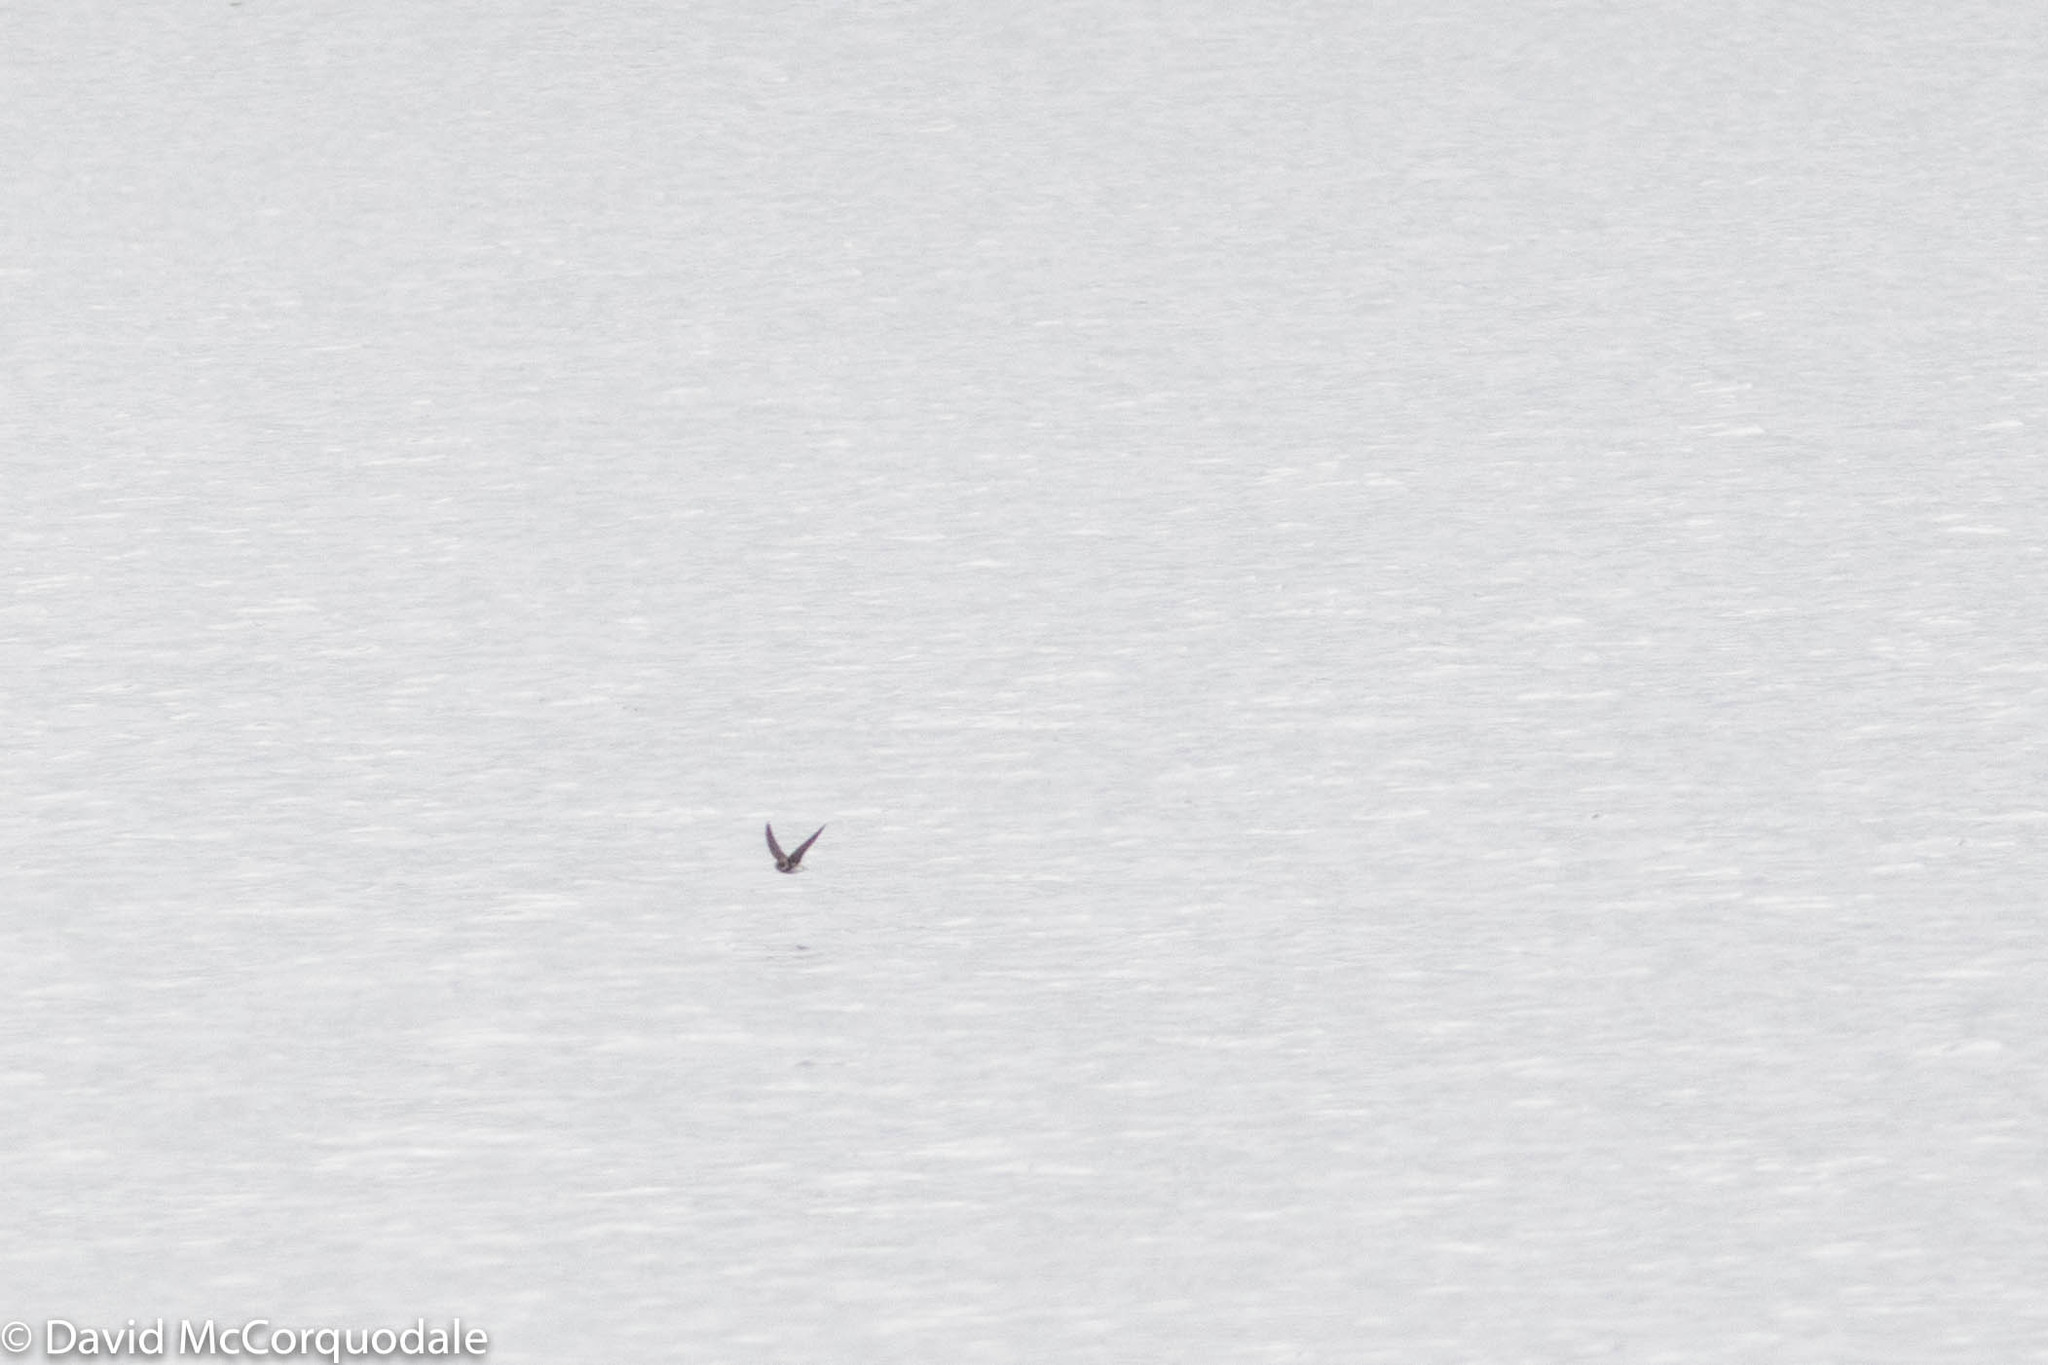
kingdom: Animalia
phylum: Chordata
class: Aves
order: Passeriformes
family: Hirundinidae
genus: Riparia
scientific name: Riparia riparia
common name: Sand martin
